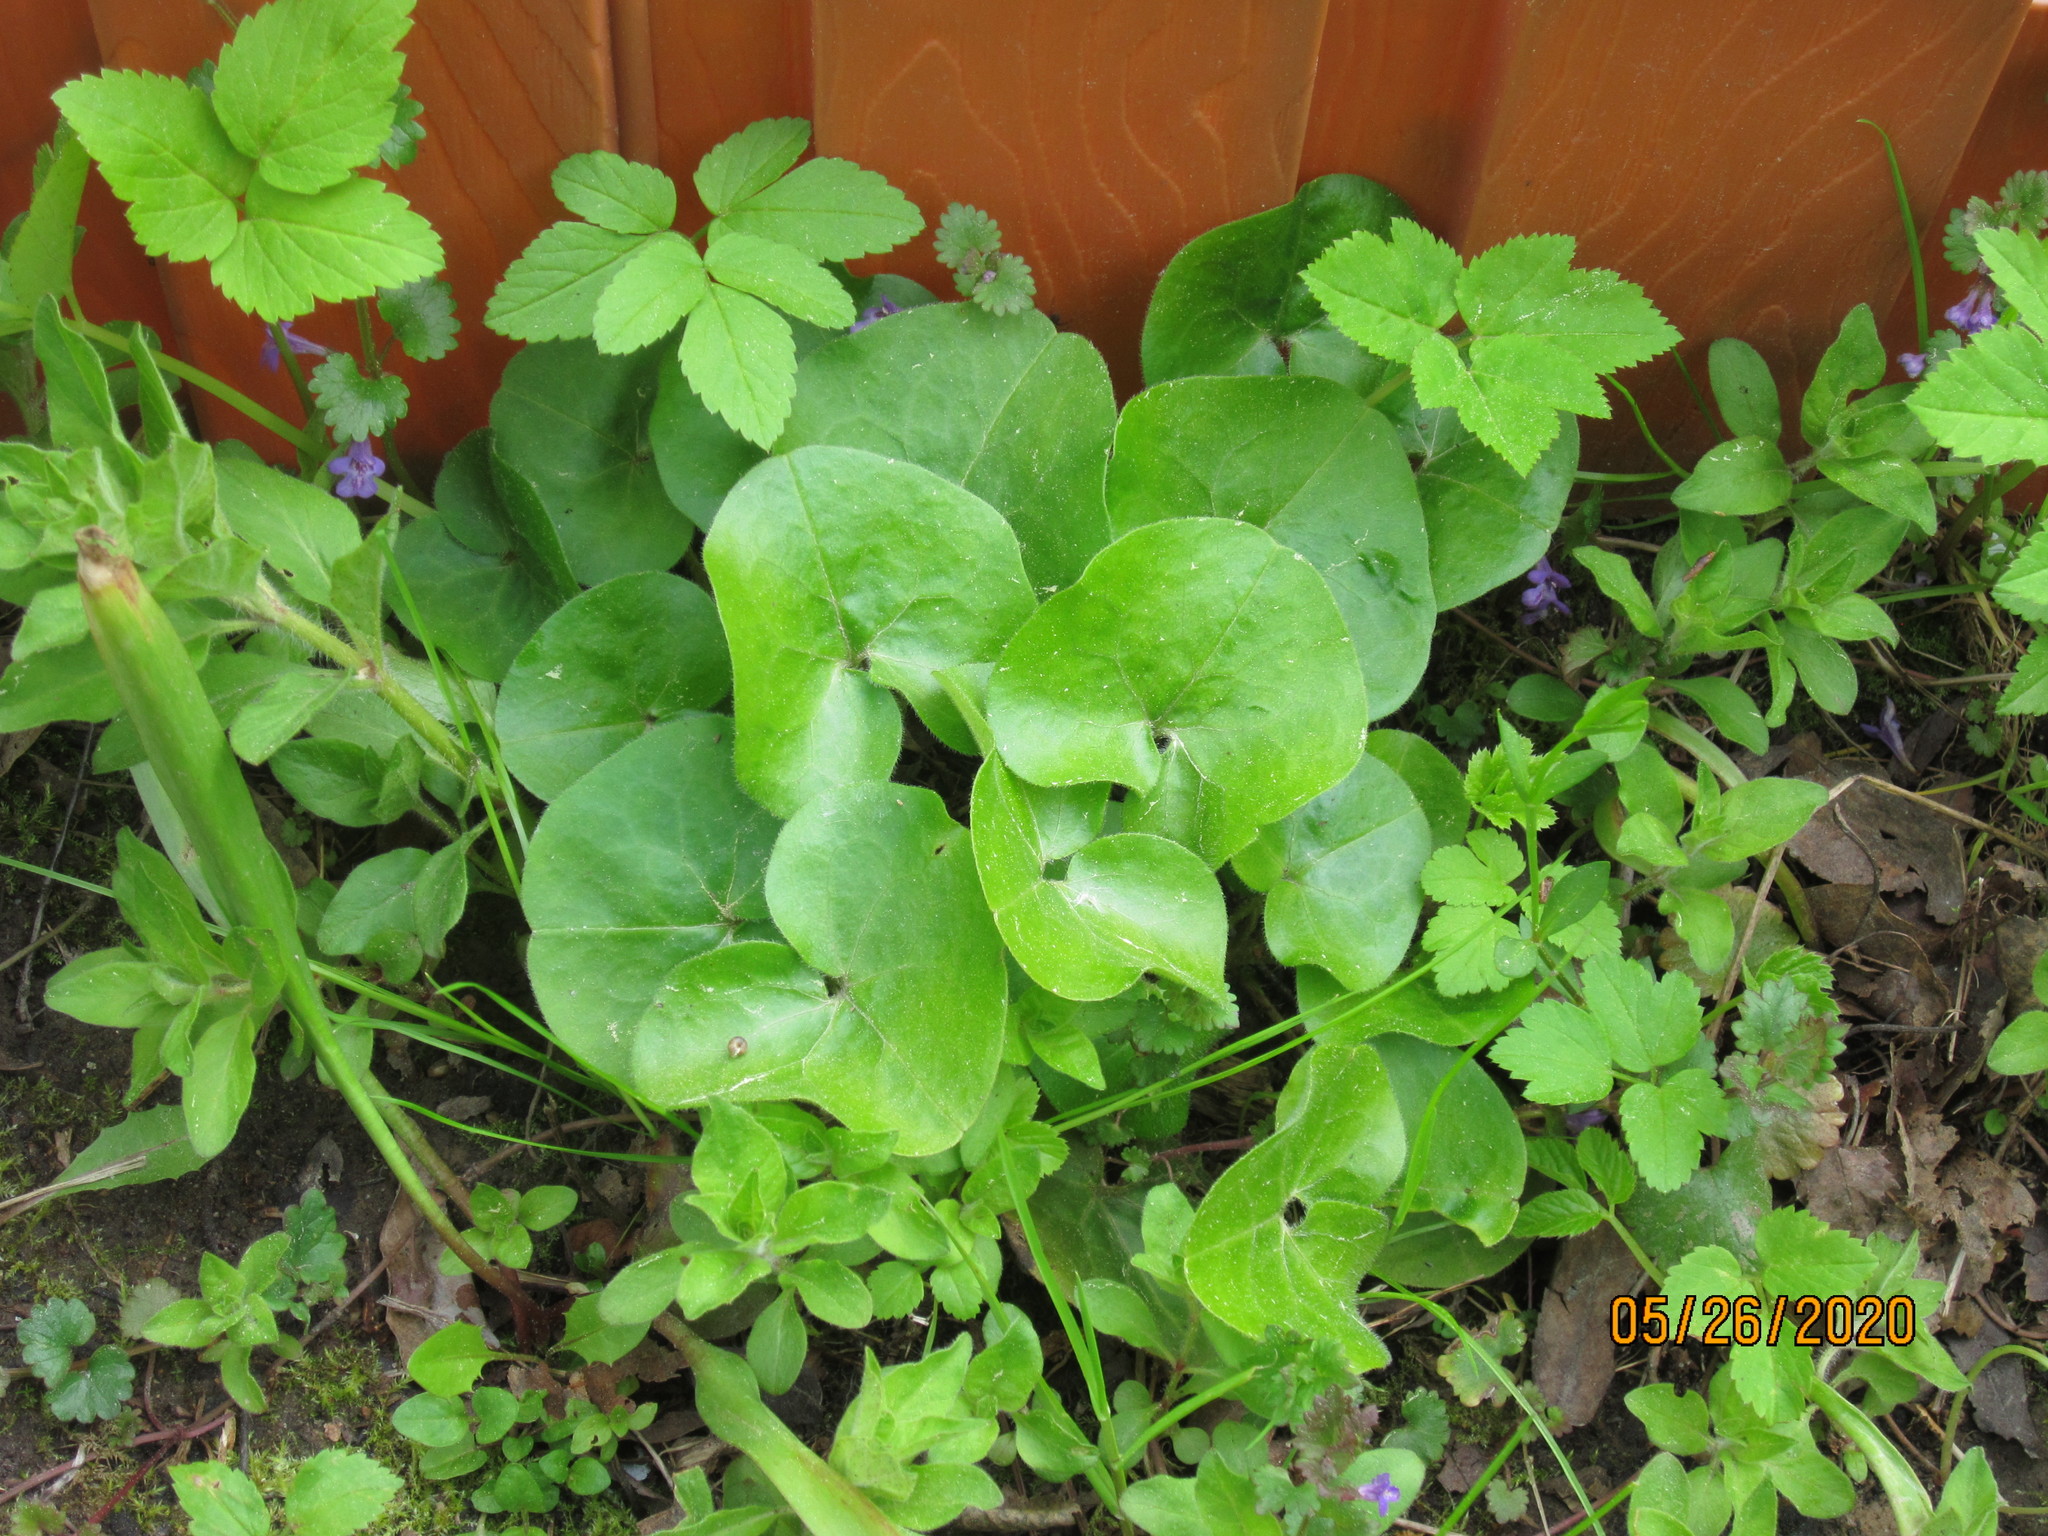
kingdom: Plantae
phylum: Tracheophyta
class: Magnoliopsida
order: Piperales
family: Aristolochiaceae
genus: Asarum
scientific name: Asarum europaeum
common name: Asarabacca
